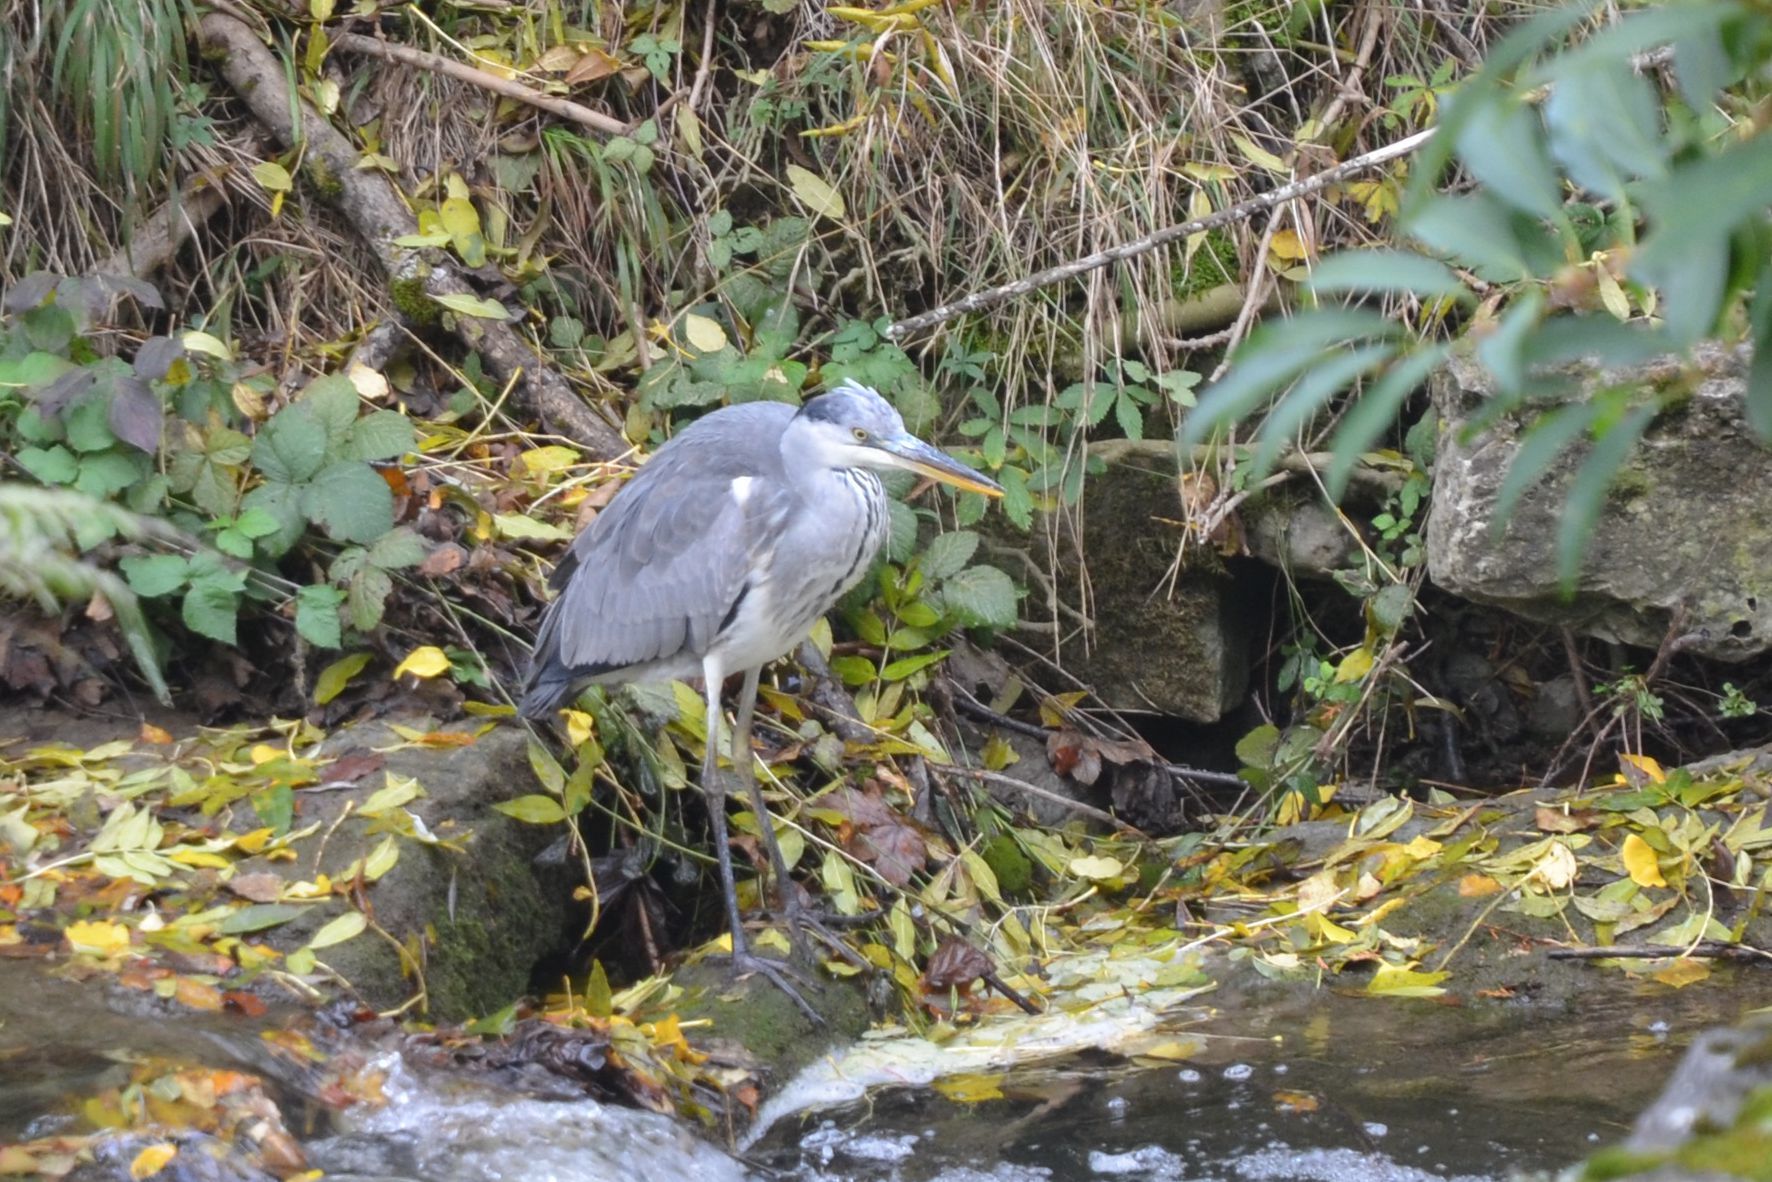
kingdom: Animalia
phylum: Chordata
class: Aves
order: Pelecaniformes
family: Ardeidae
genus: Ardea
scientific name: Ardea cinerea
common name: Grey heron
